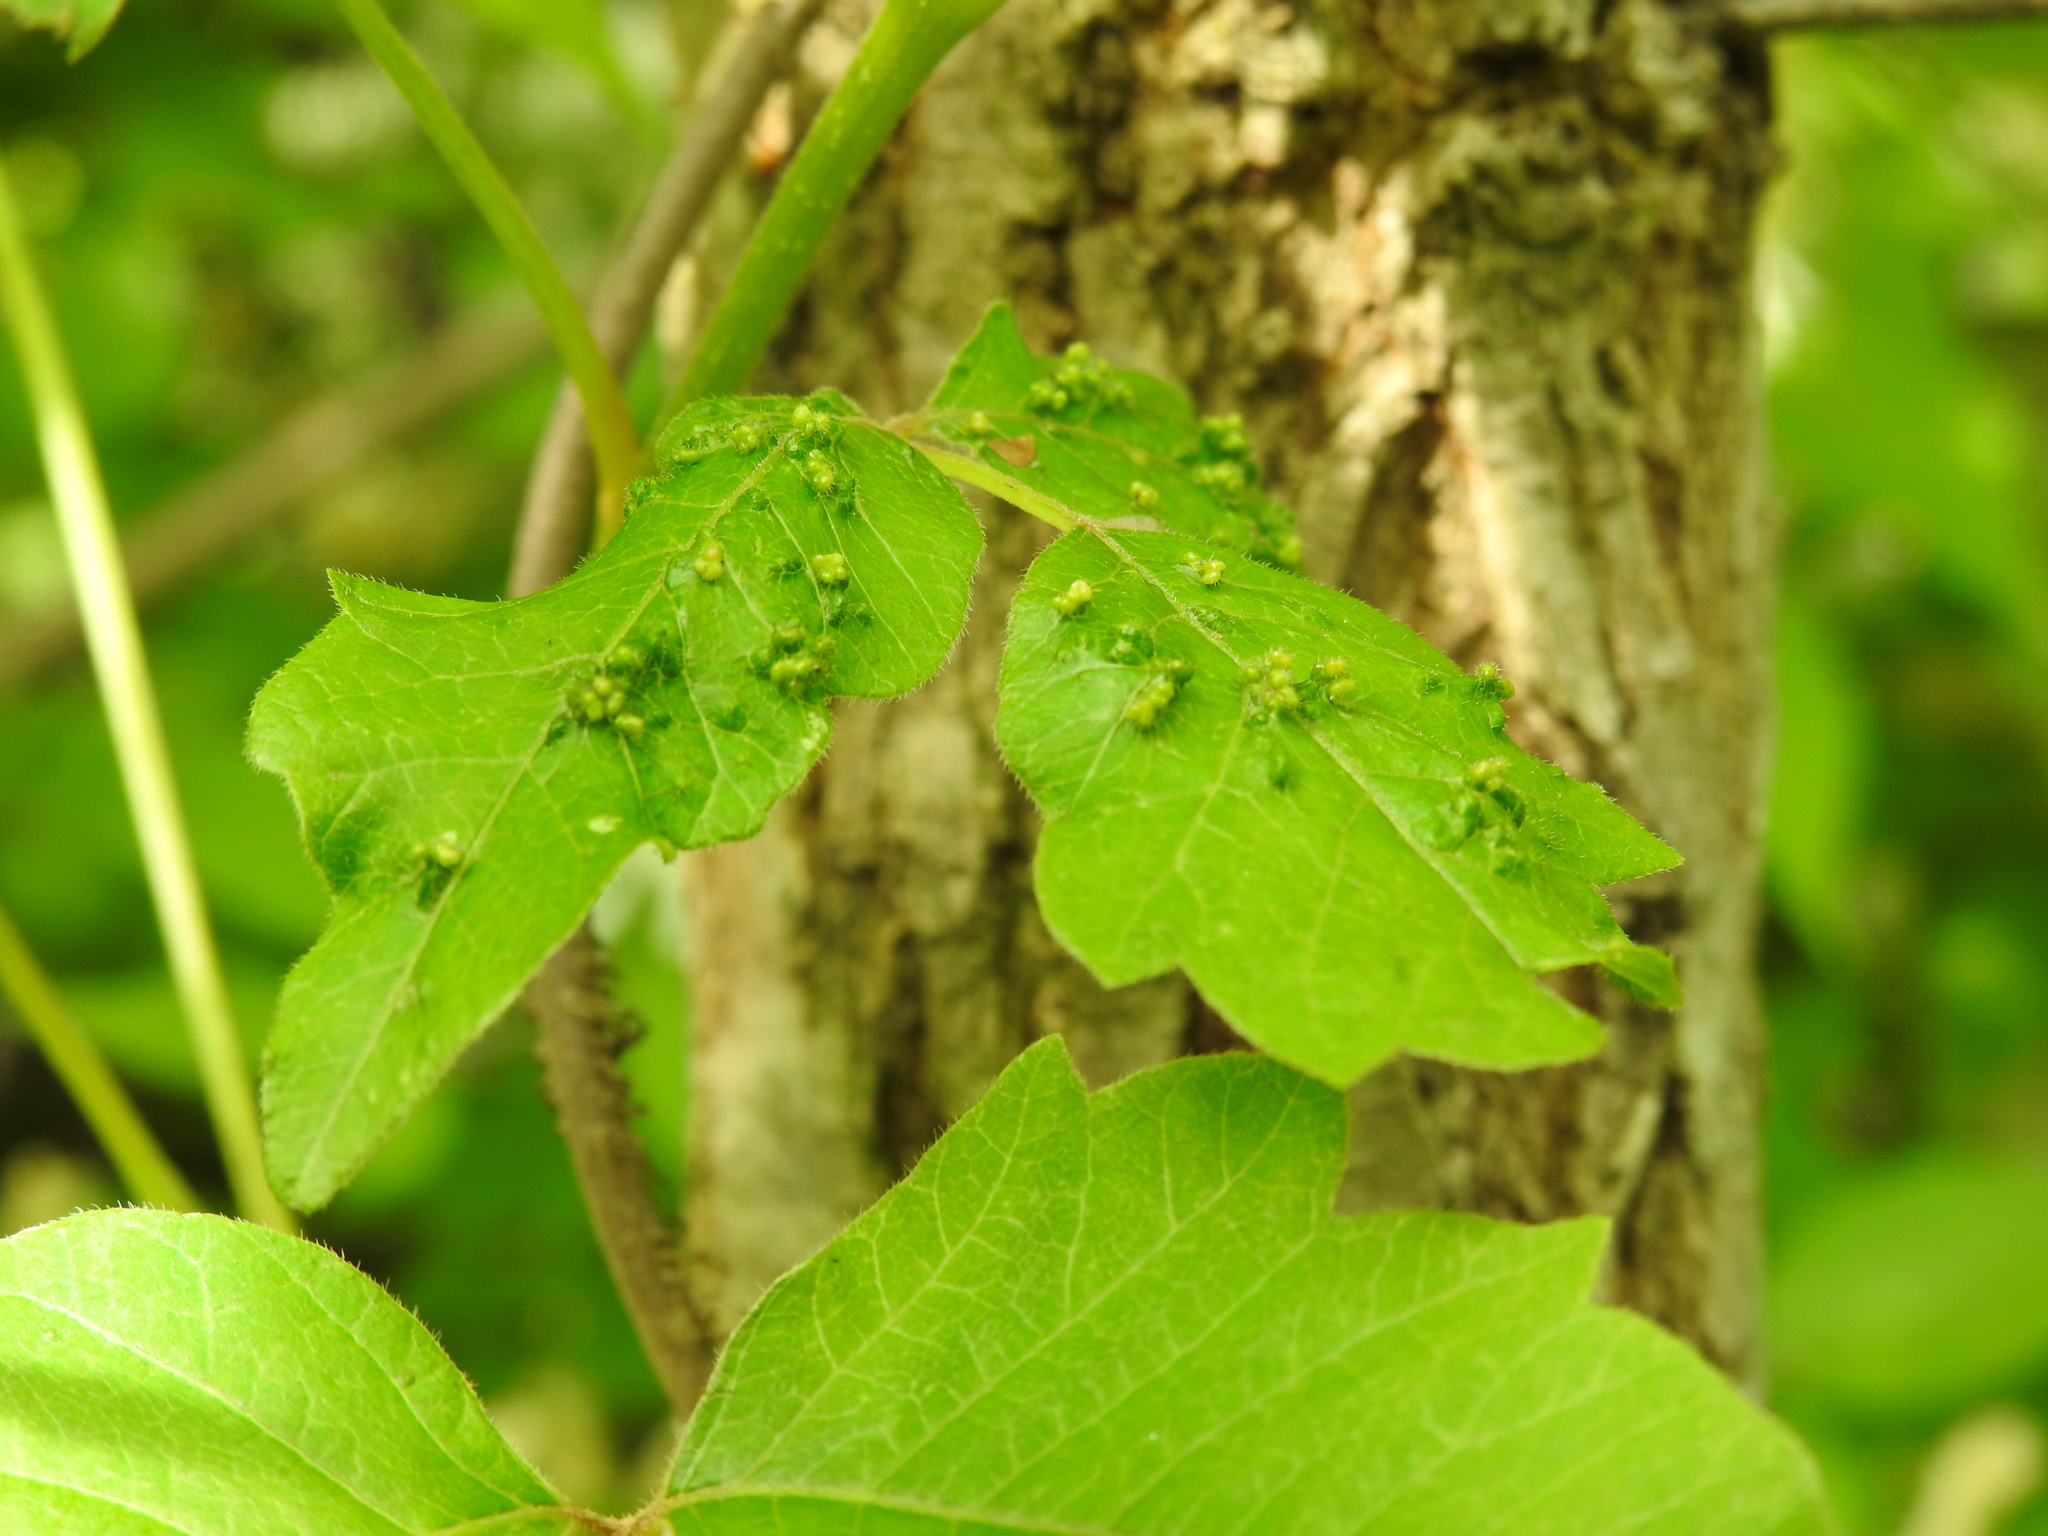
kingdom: Animalia
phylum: Arthropoda
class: Arachnida
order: Trombidiformes
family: Eriophyidae
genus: Aculops
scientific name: Aculops
